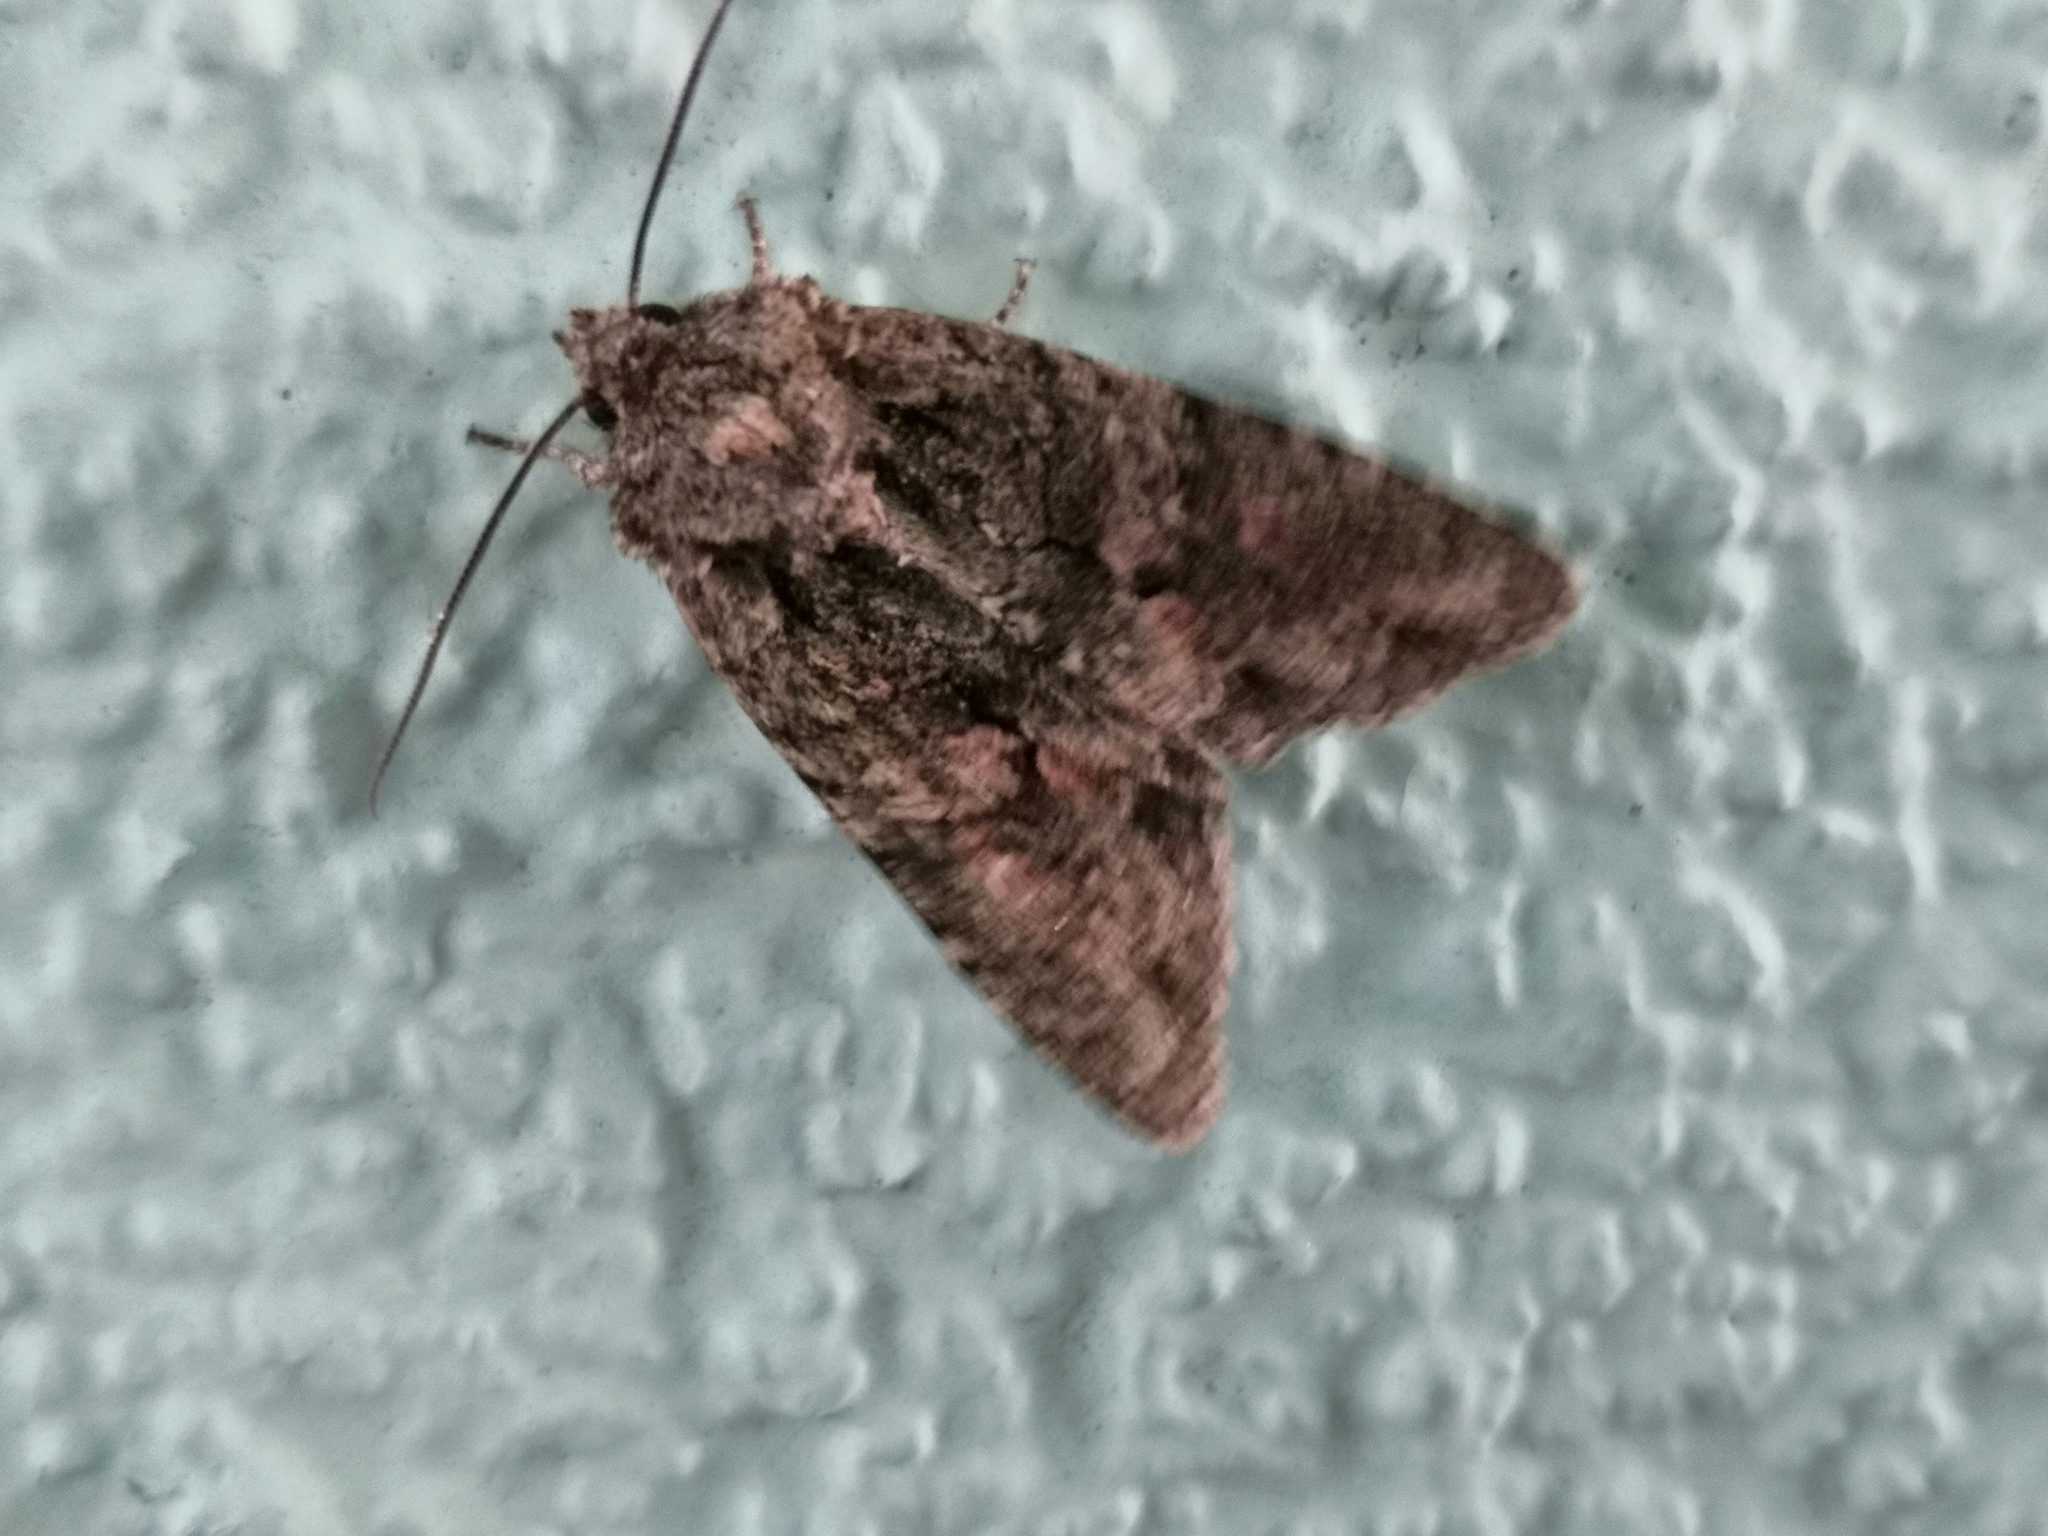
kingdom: Animalia
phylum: Arthropoda
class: Insecta
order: Lepidoptera
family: Noctuidae
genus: Dryobotodes
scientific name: Dryobotodes eremita
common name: Brindled green
